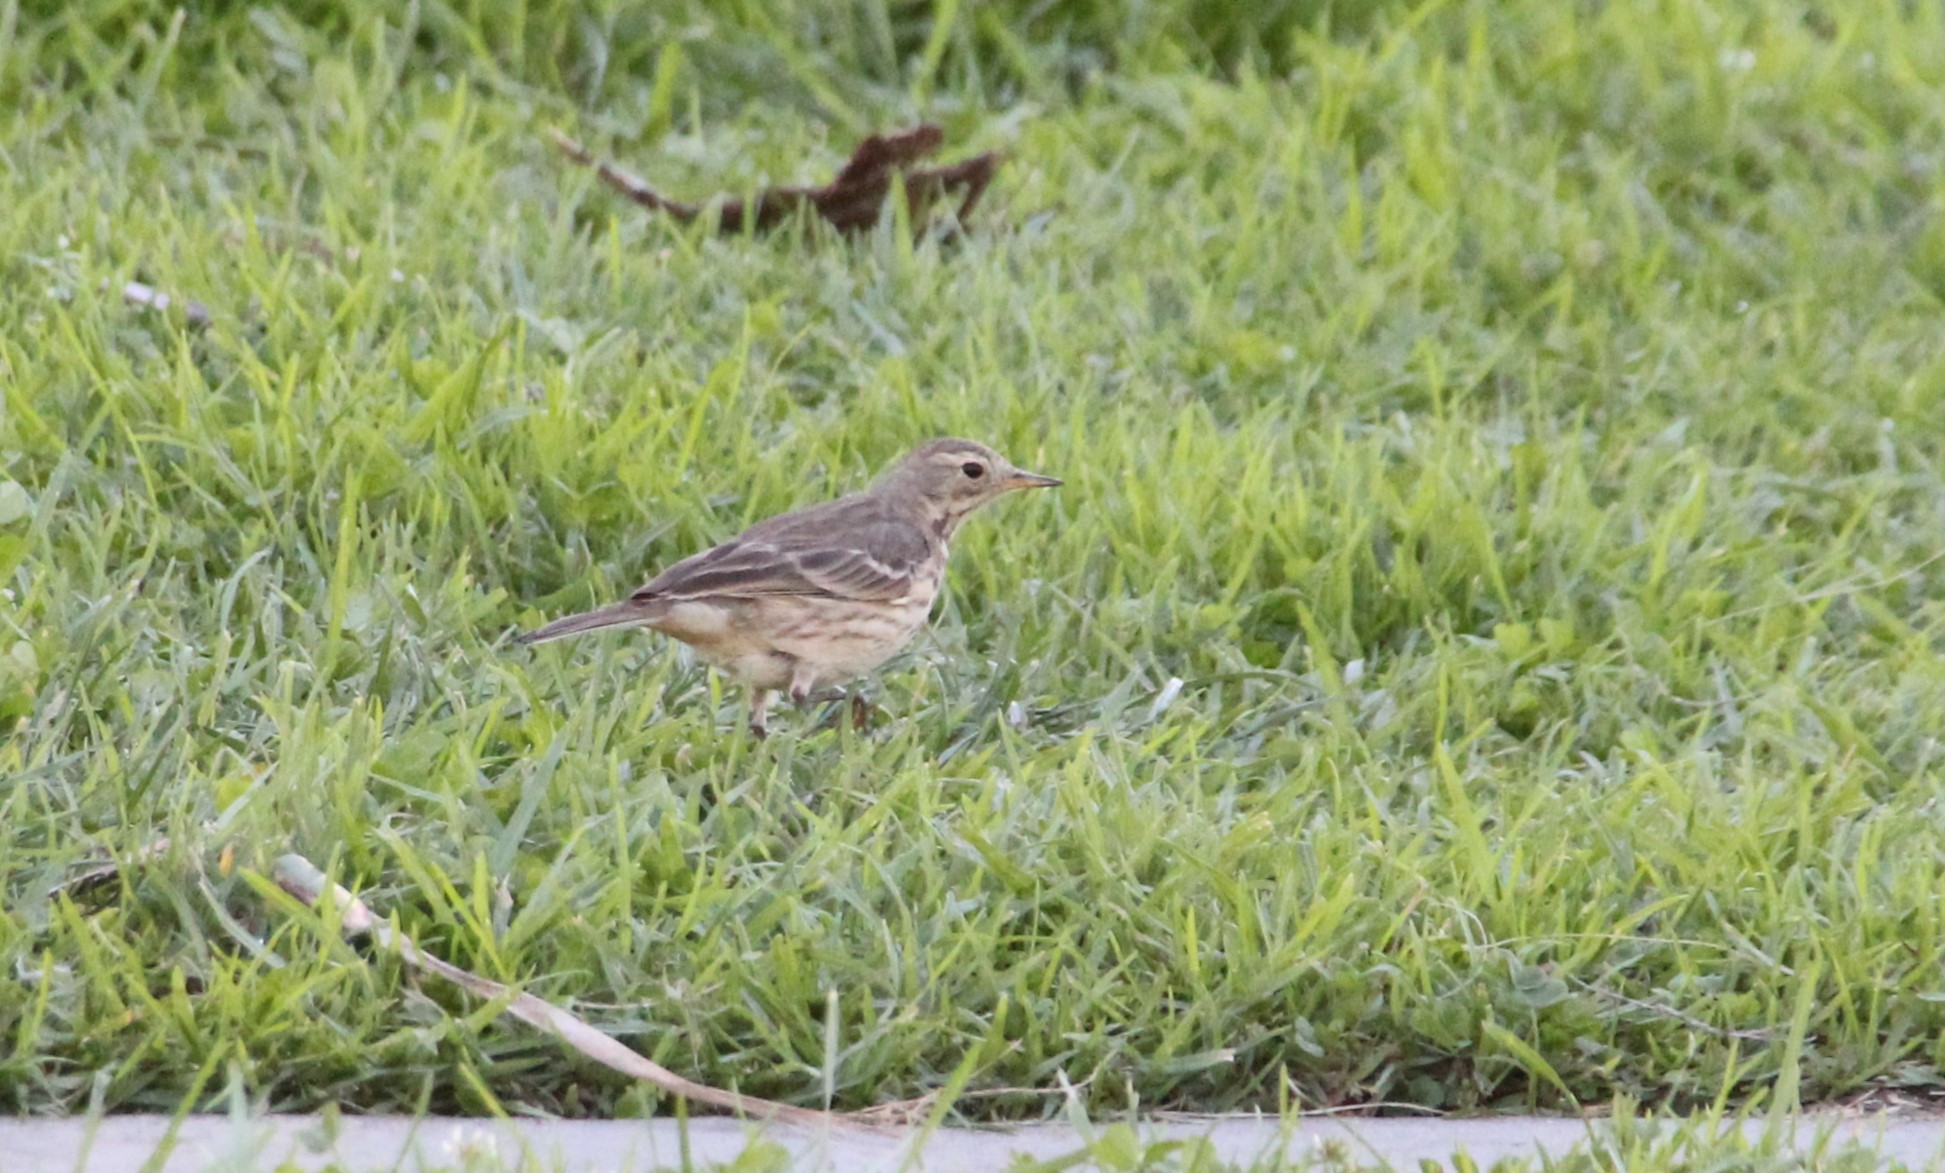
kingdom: Animalia
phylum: Chordata
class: Aves
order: Passeriformes
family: Motacillidae
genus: Anthus
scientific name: Anthus rubescens
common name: Buff-bellied pipit
